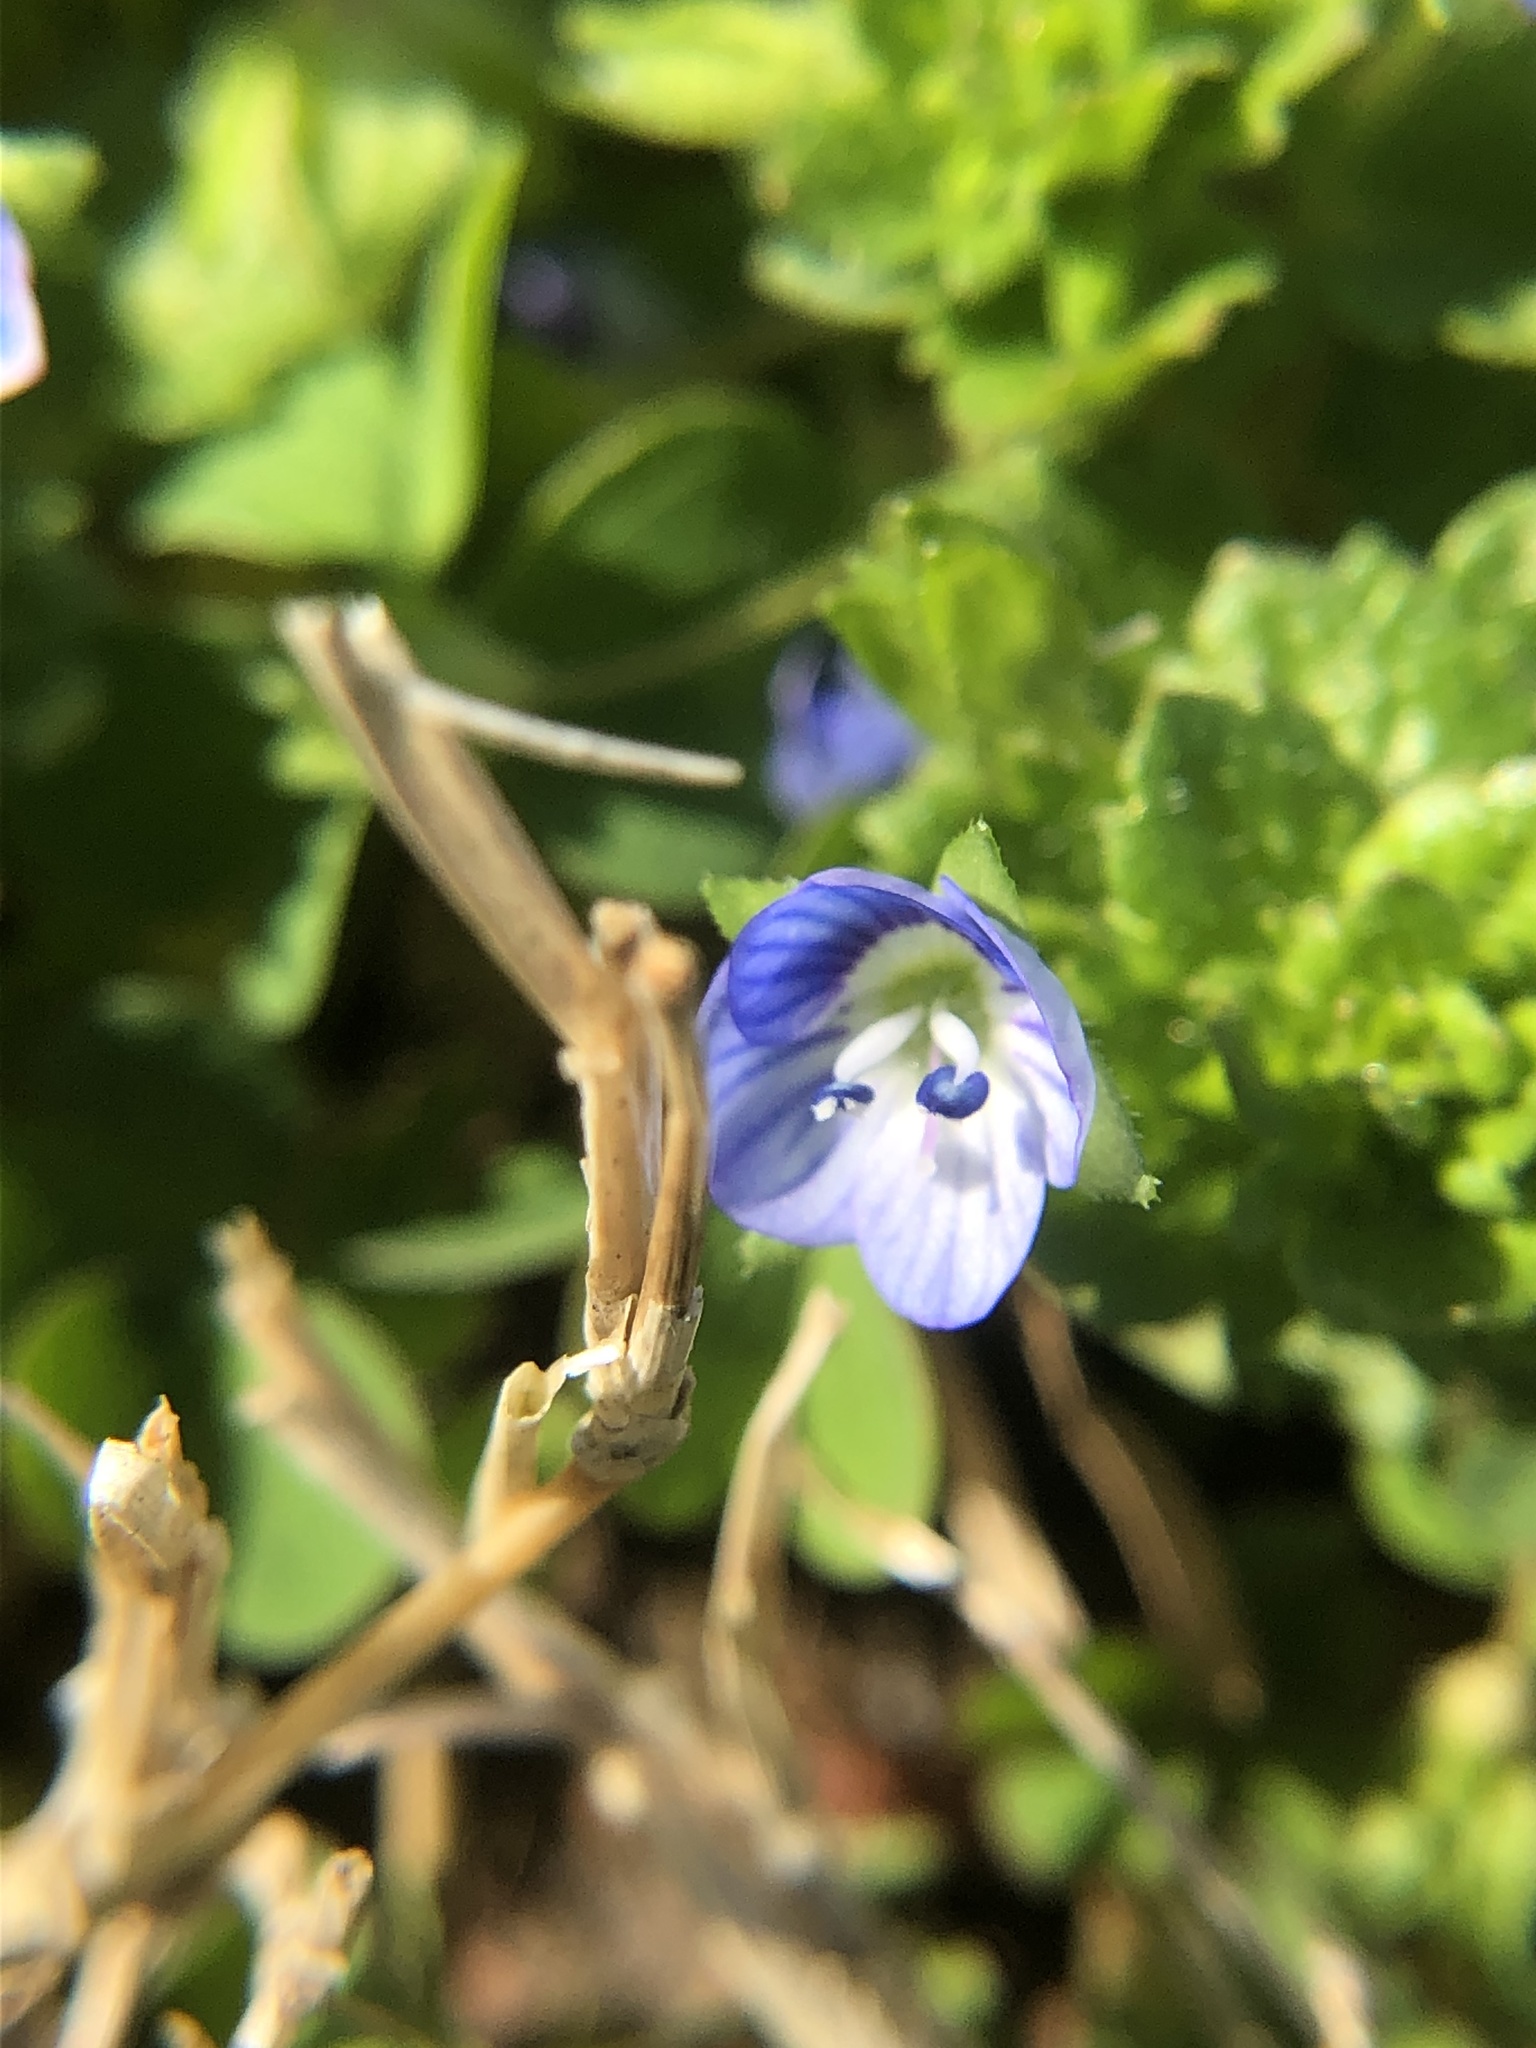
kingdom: Plantae
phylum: Tracheophyta
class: Magnoliopsida
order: Lamiales
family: Plantaginaceae
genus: Veronica
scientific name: Veronica persica
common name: Common field-speedwell
